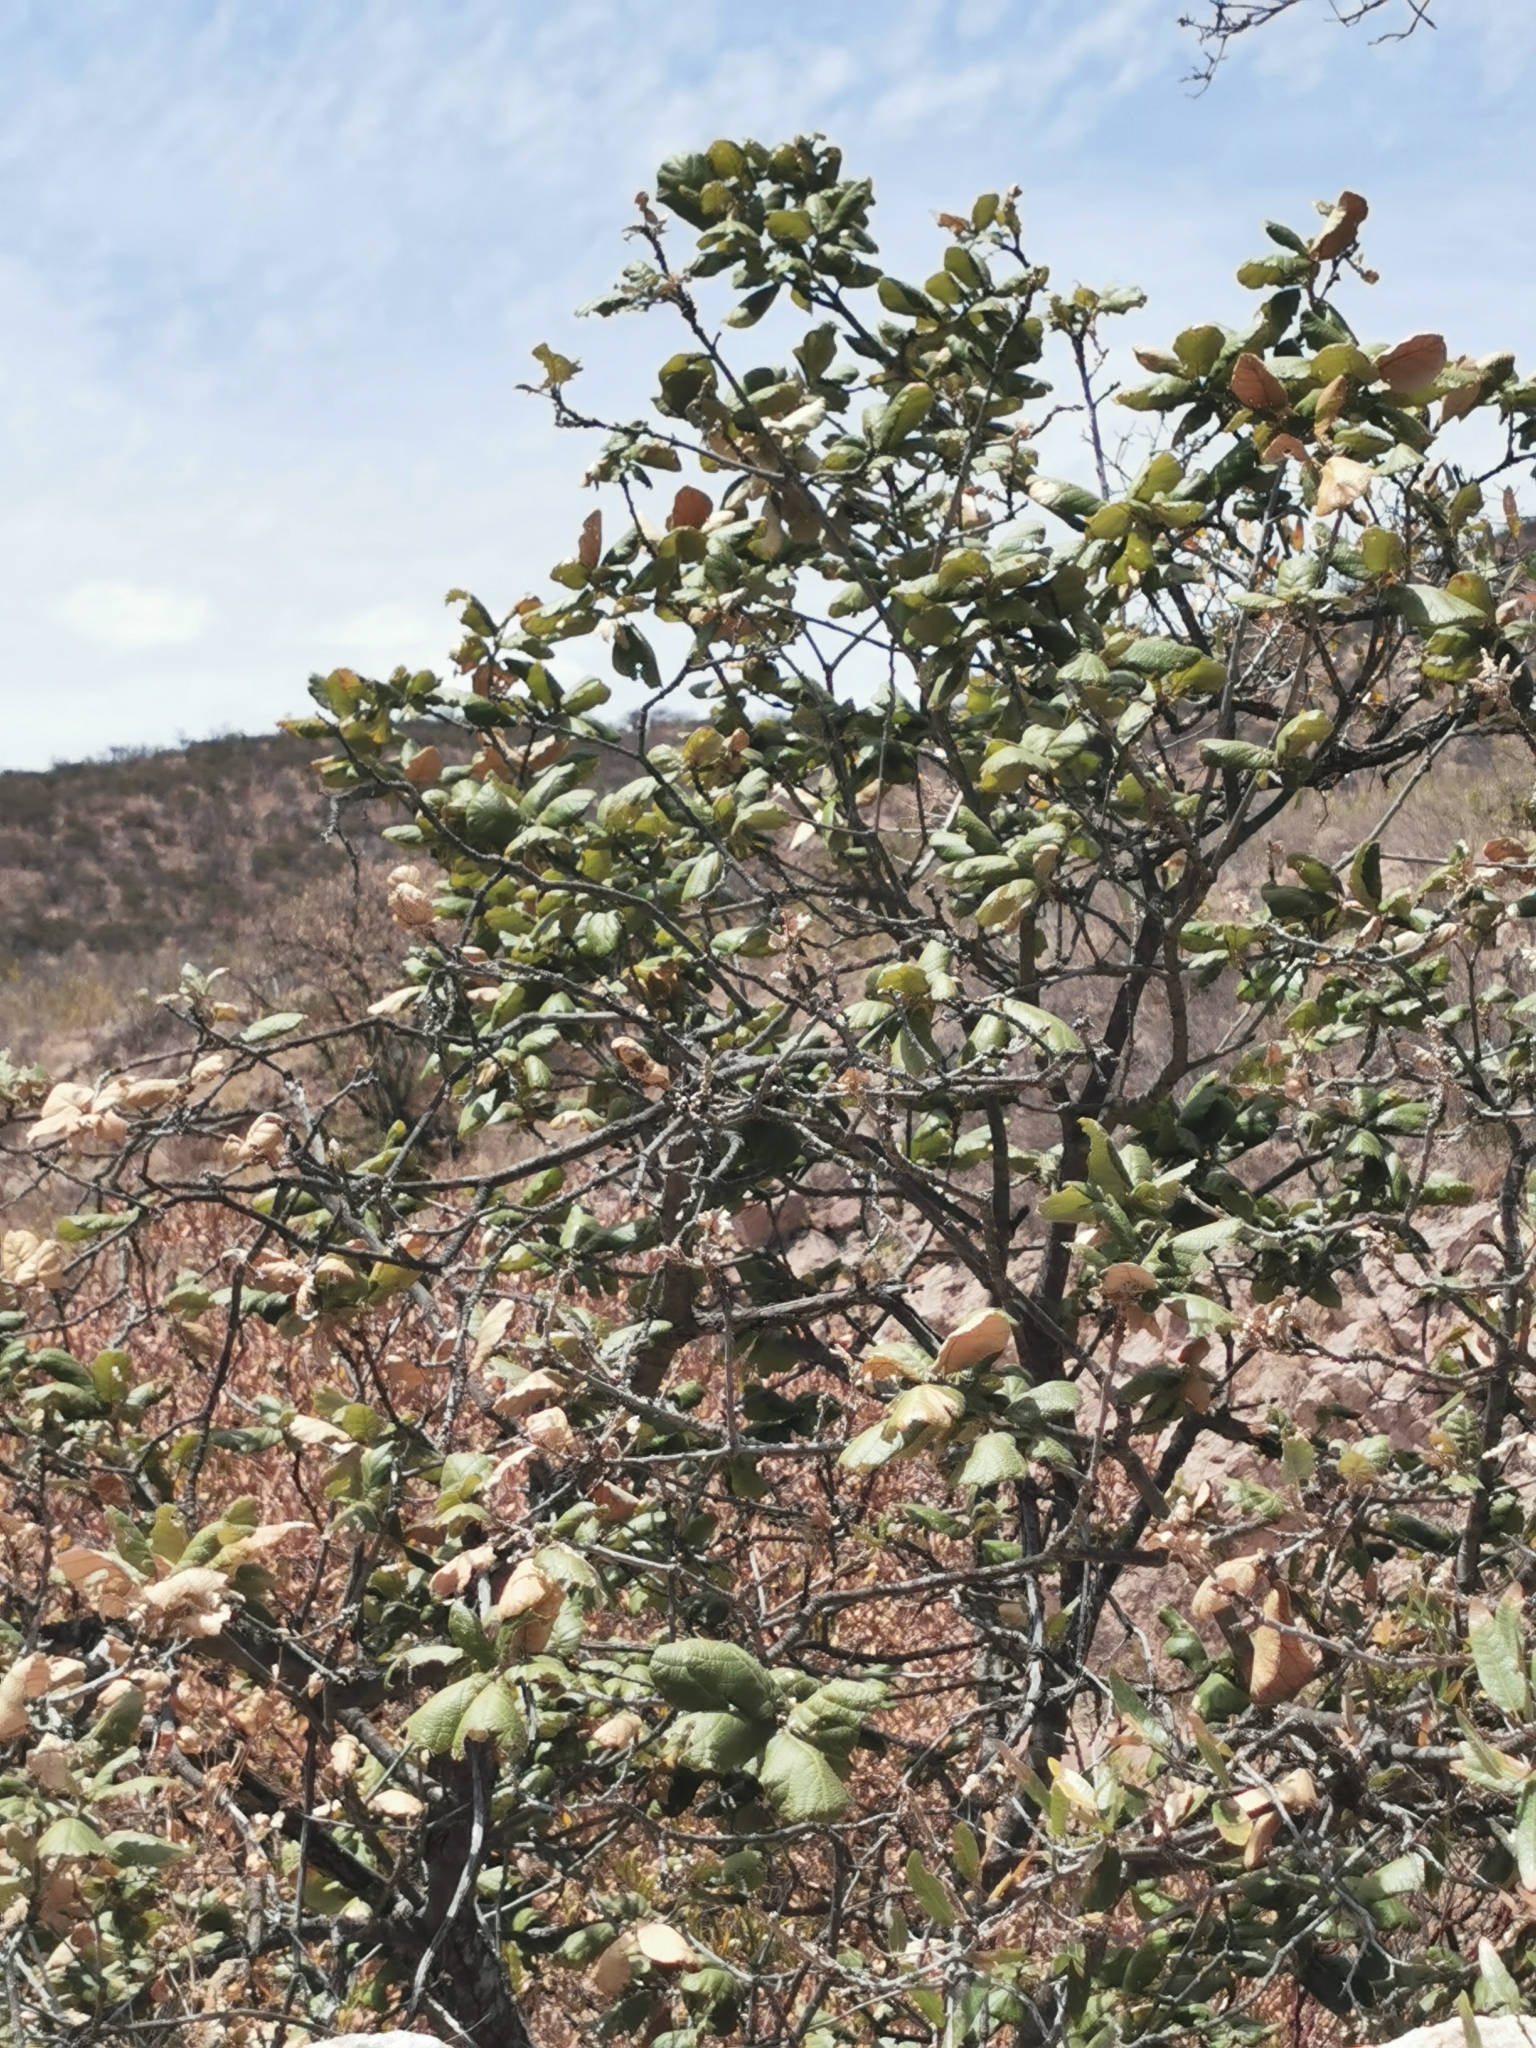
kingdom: Plantae
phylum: Tracheophyta
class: Magnoliopsida
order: Fagales
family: Fagaceae
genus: Quercus
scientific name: Quercus huicholensis
